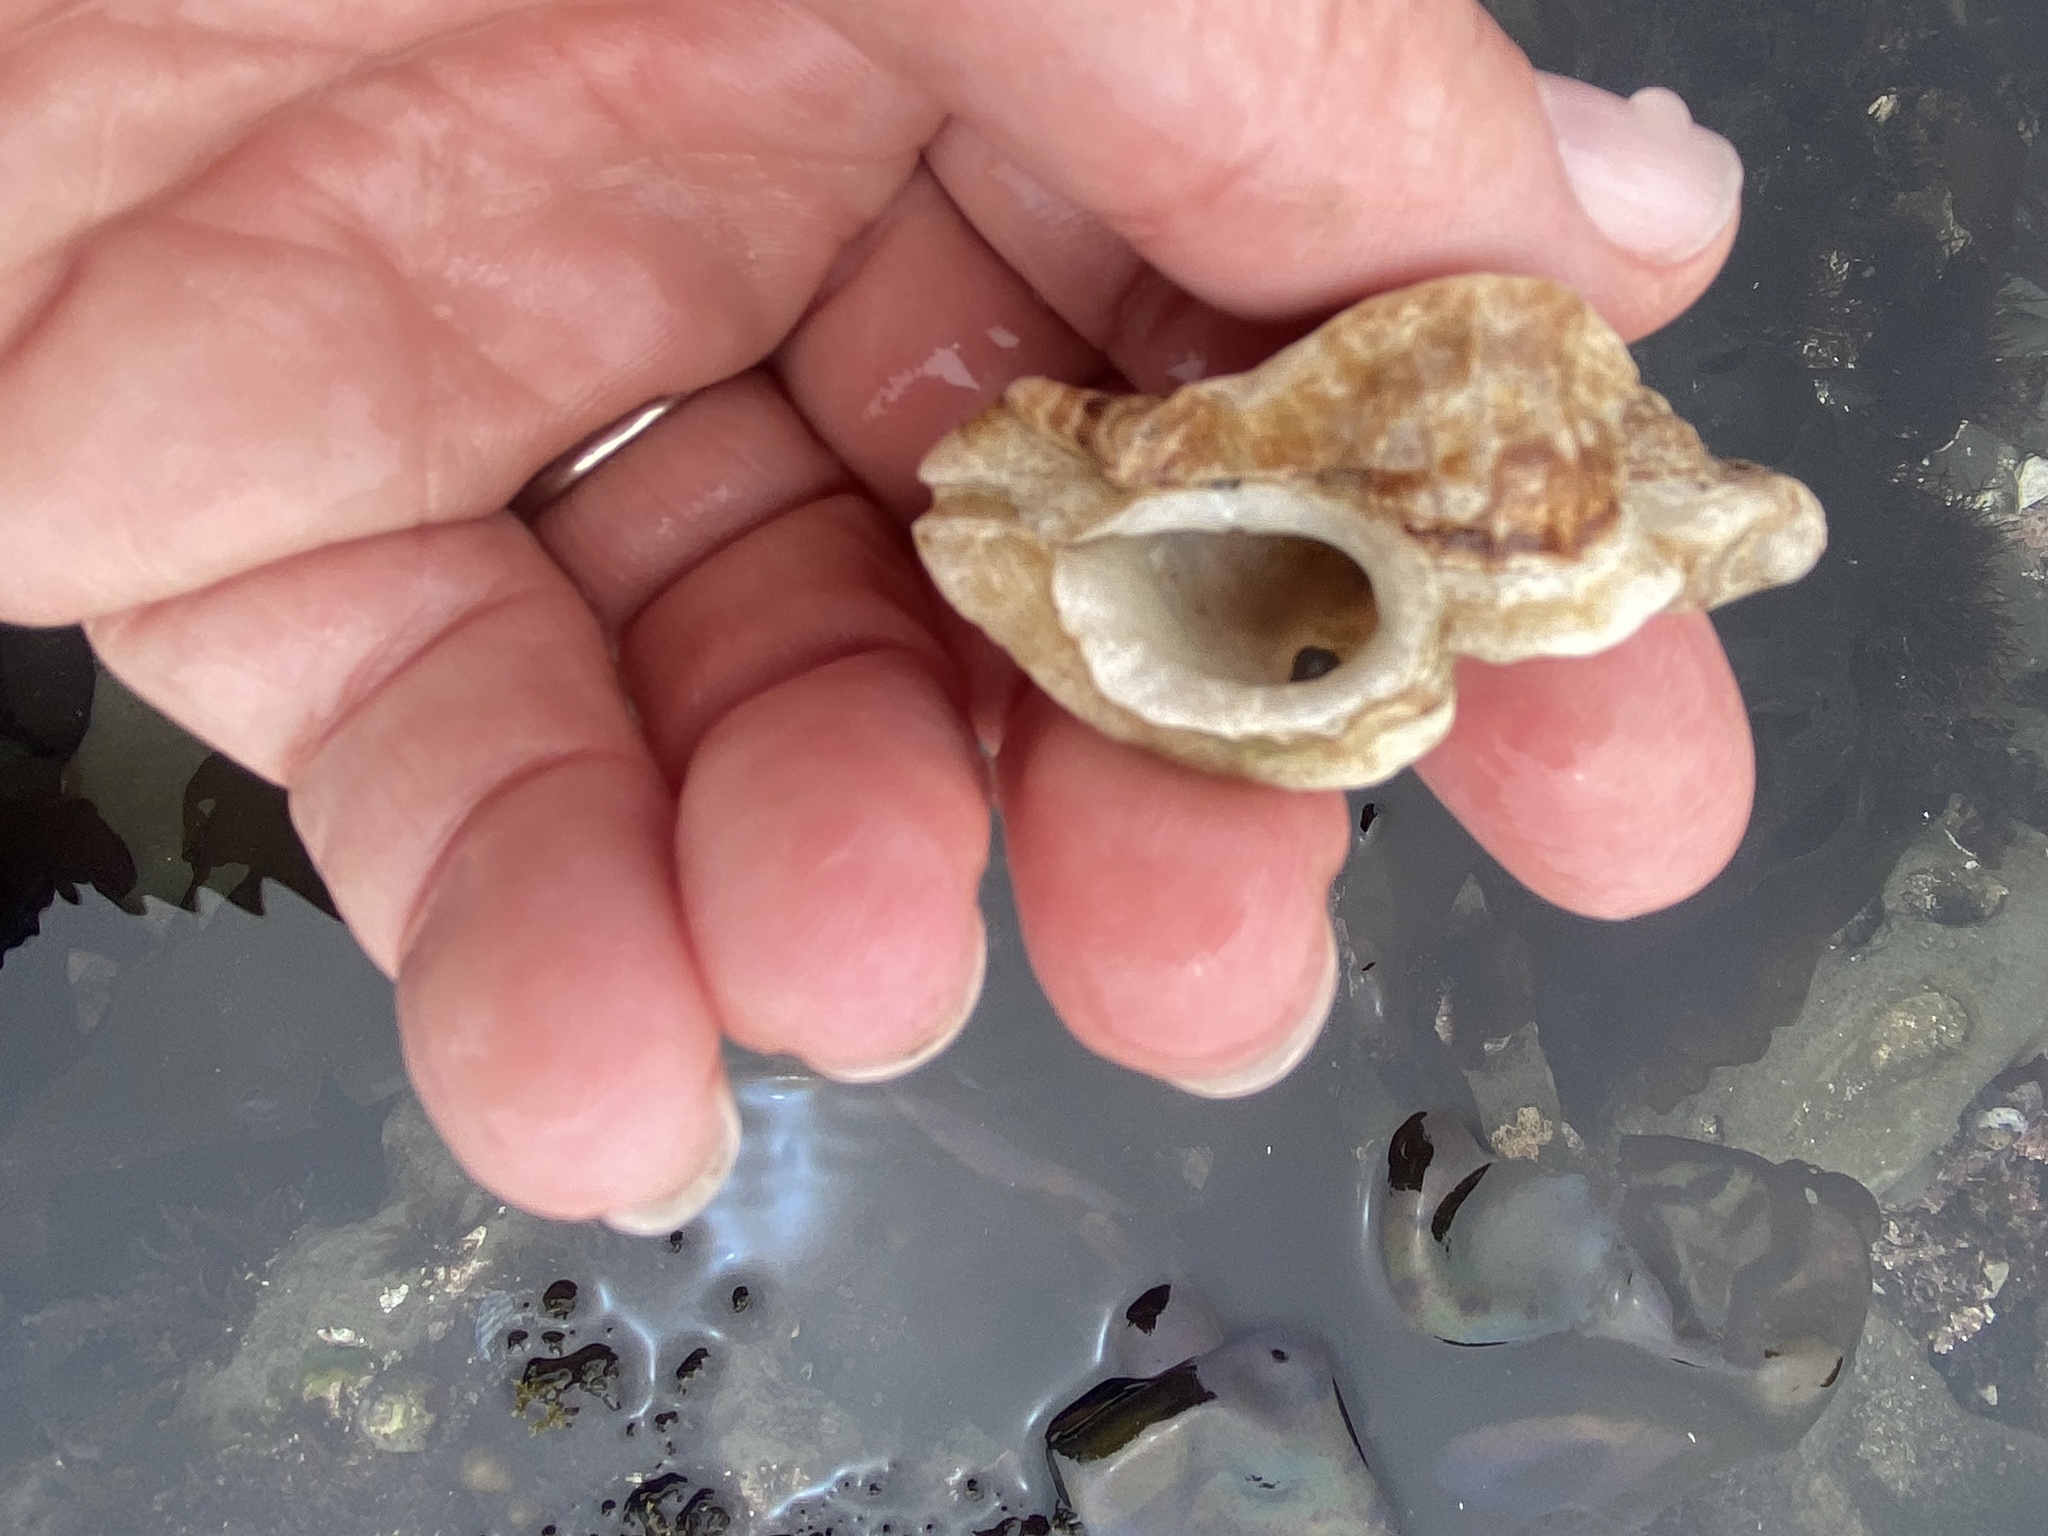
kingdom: Animalia
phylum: Mollusca
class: Gastropoda
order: Neogastropoda
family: Muricidae
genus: Ceratostoma
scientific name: Ceratostoma foliatum
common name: Foliate thorn purpura
